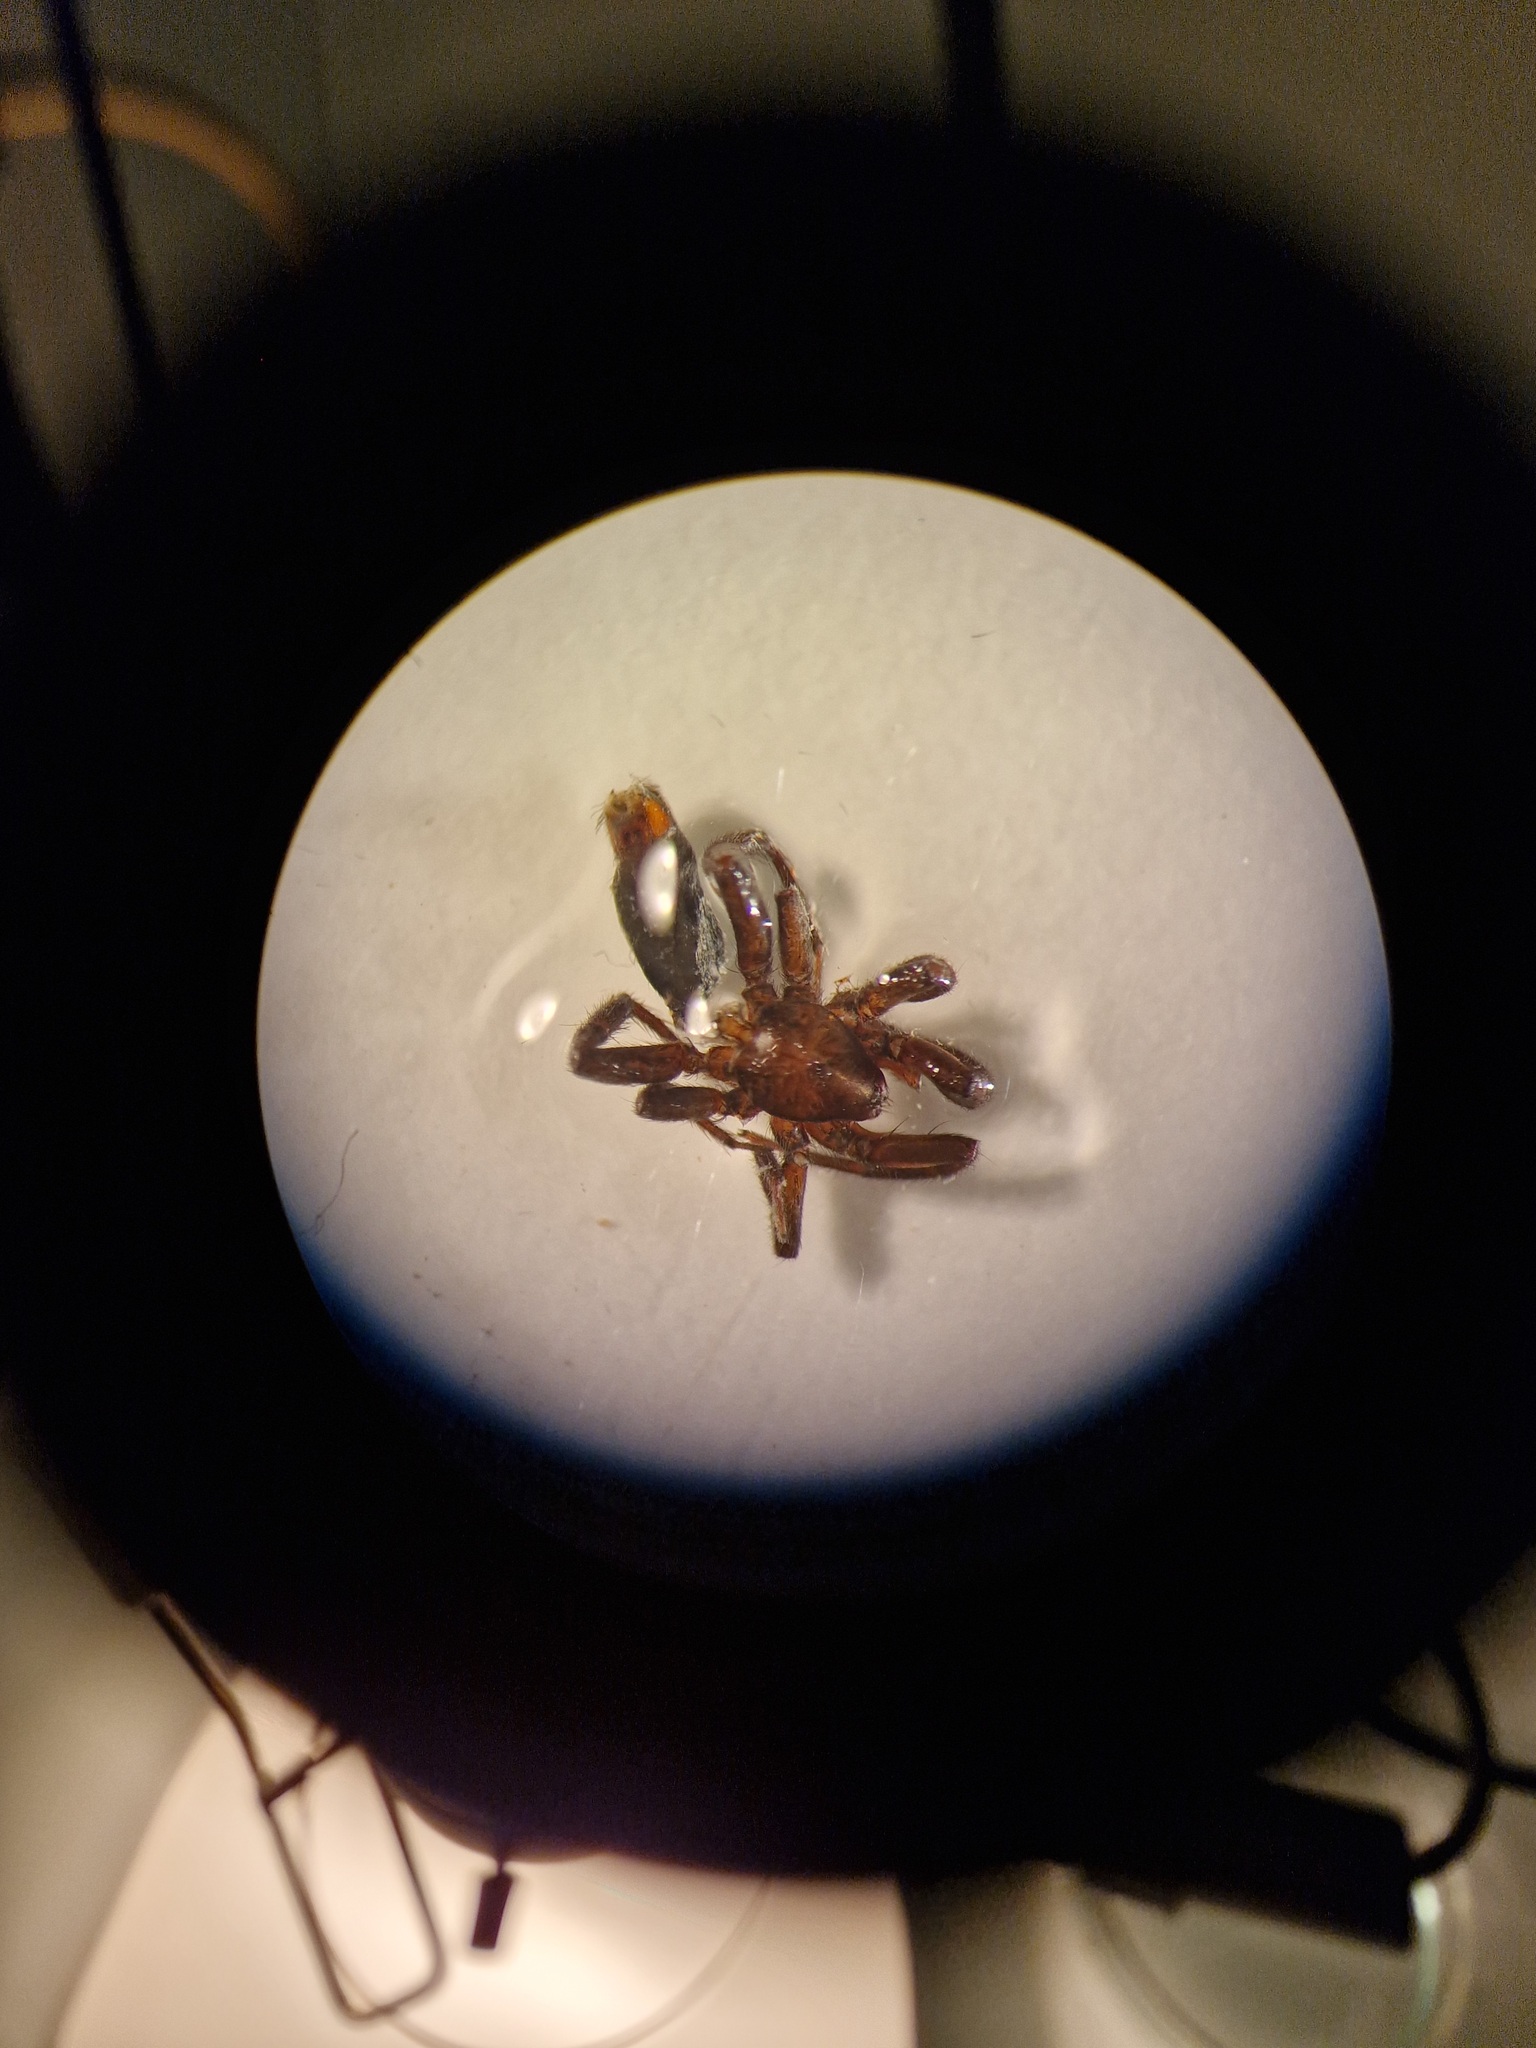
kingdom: Animalia
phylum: Arthropoda
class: Arachnida
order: Araneae
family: Gnaphosidae
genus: Zelotes
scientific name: Zelotes thorelli
